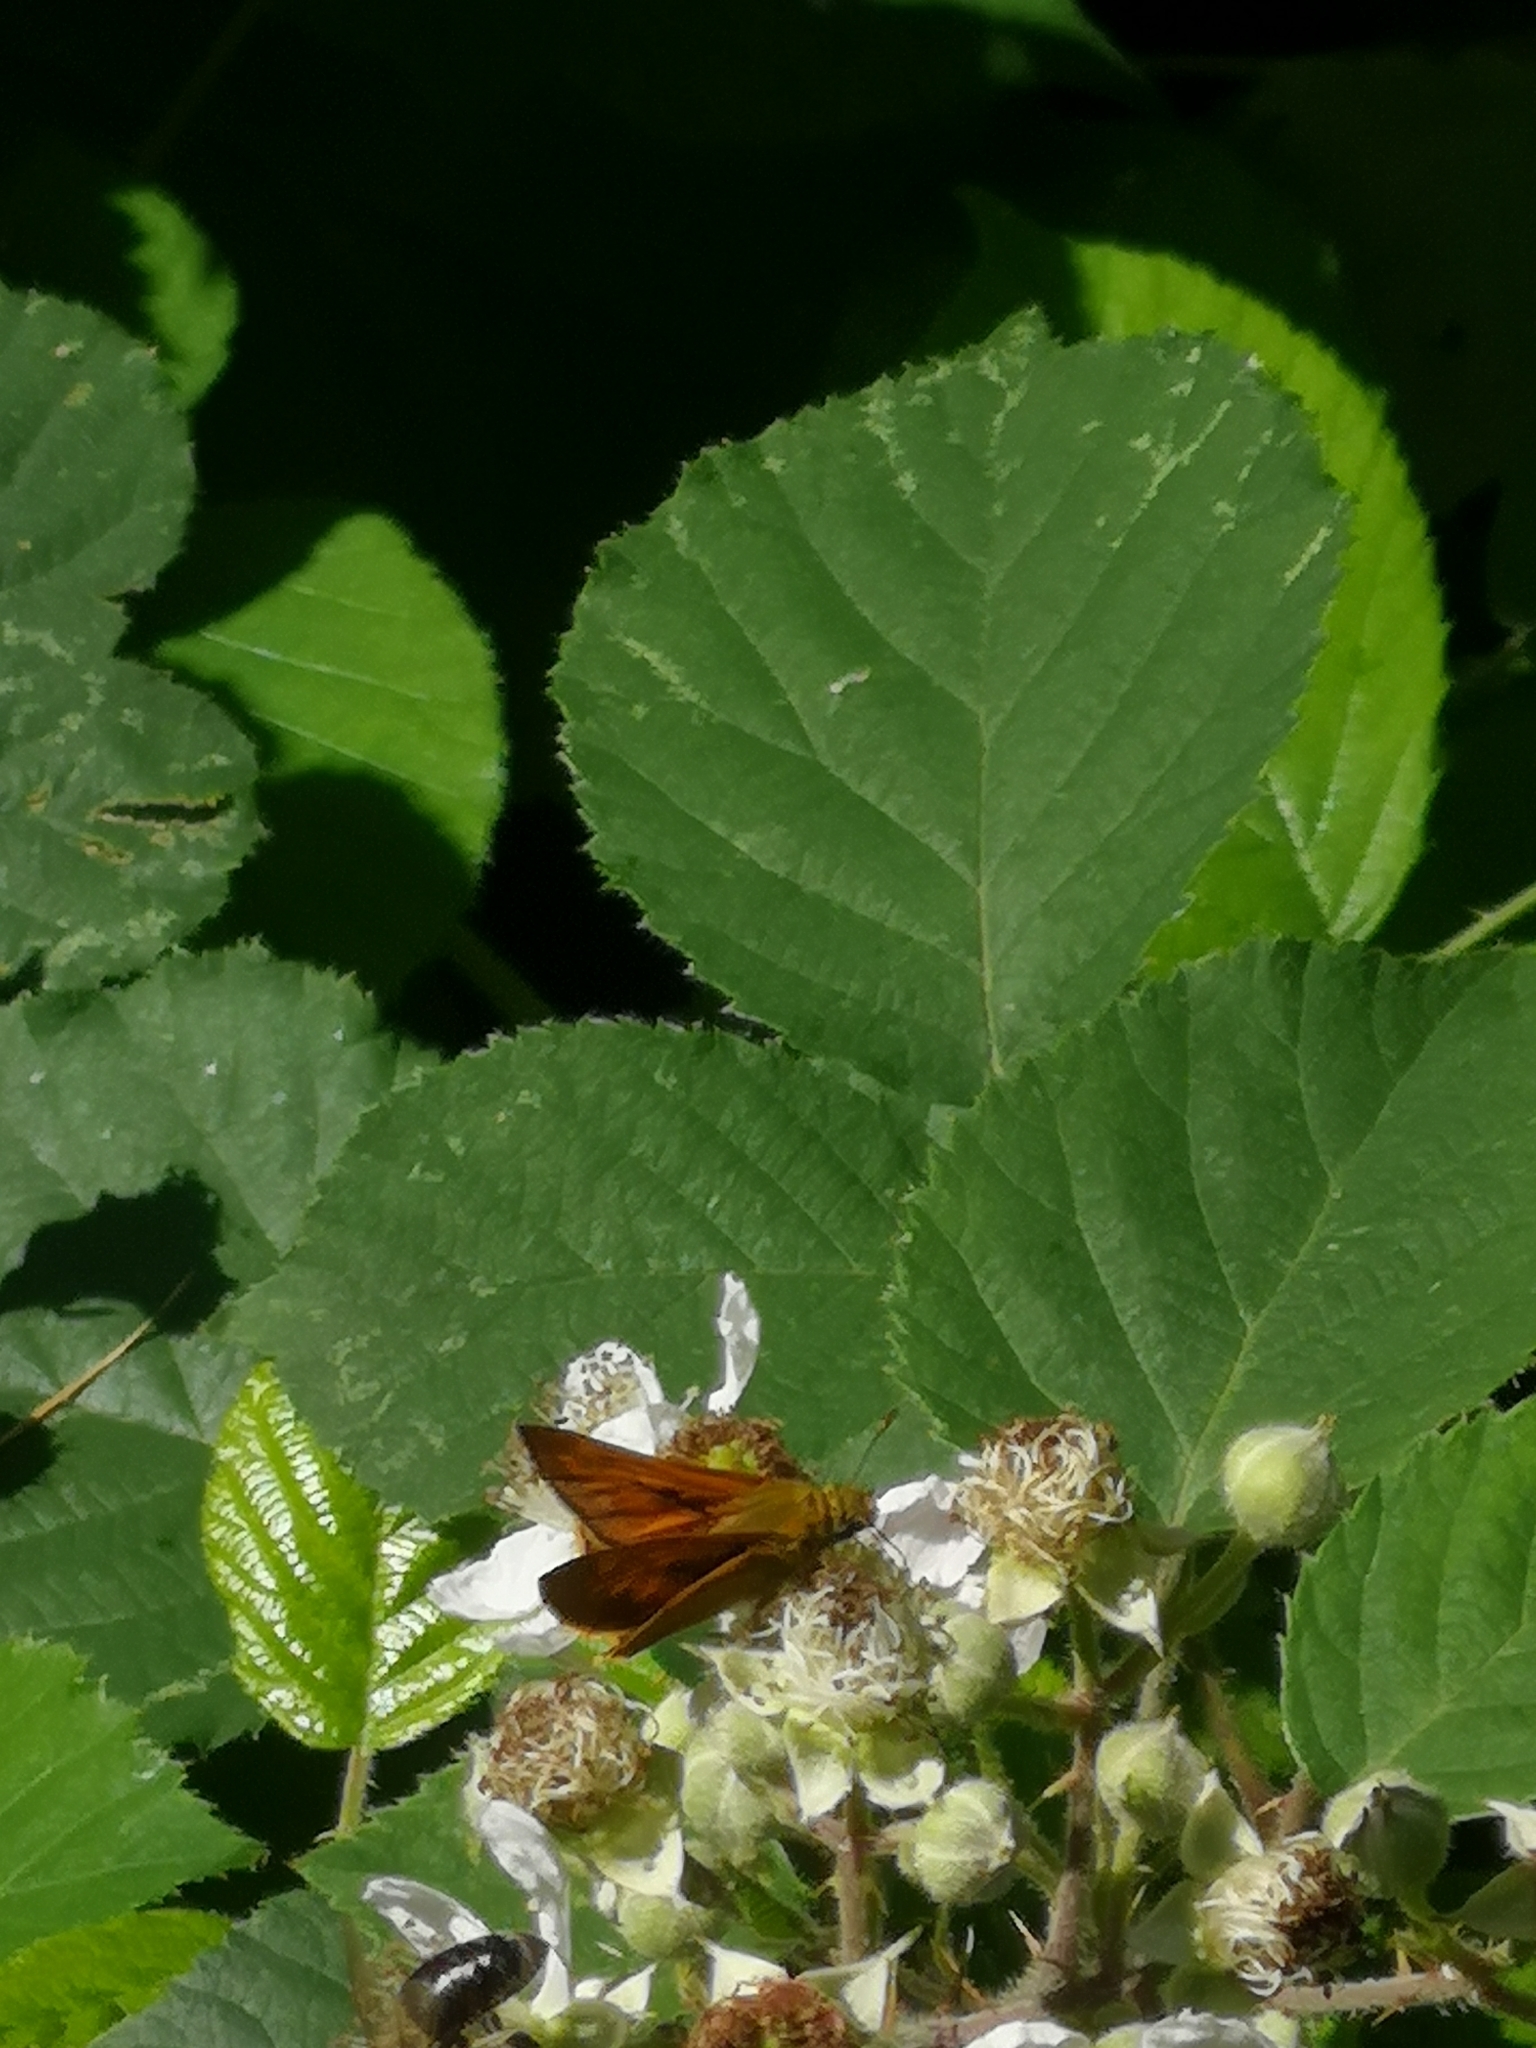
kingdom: Animalia
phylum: Arthropoda
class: Insecta
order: Lepidoptera
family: Hesperiidae
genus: Ochlodes
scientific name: Ochlodes venata
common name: Large skipper
